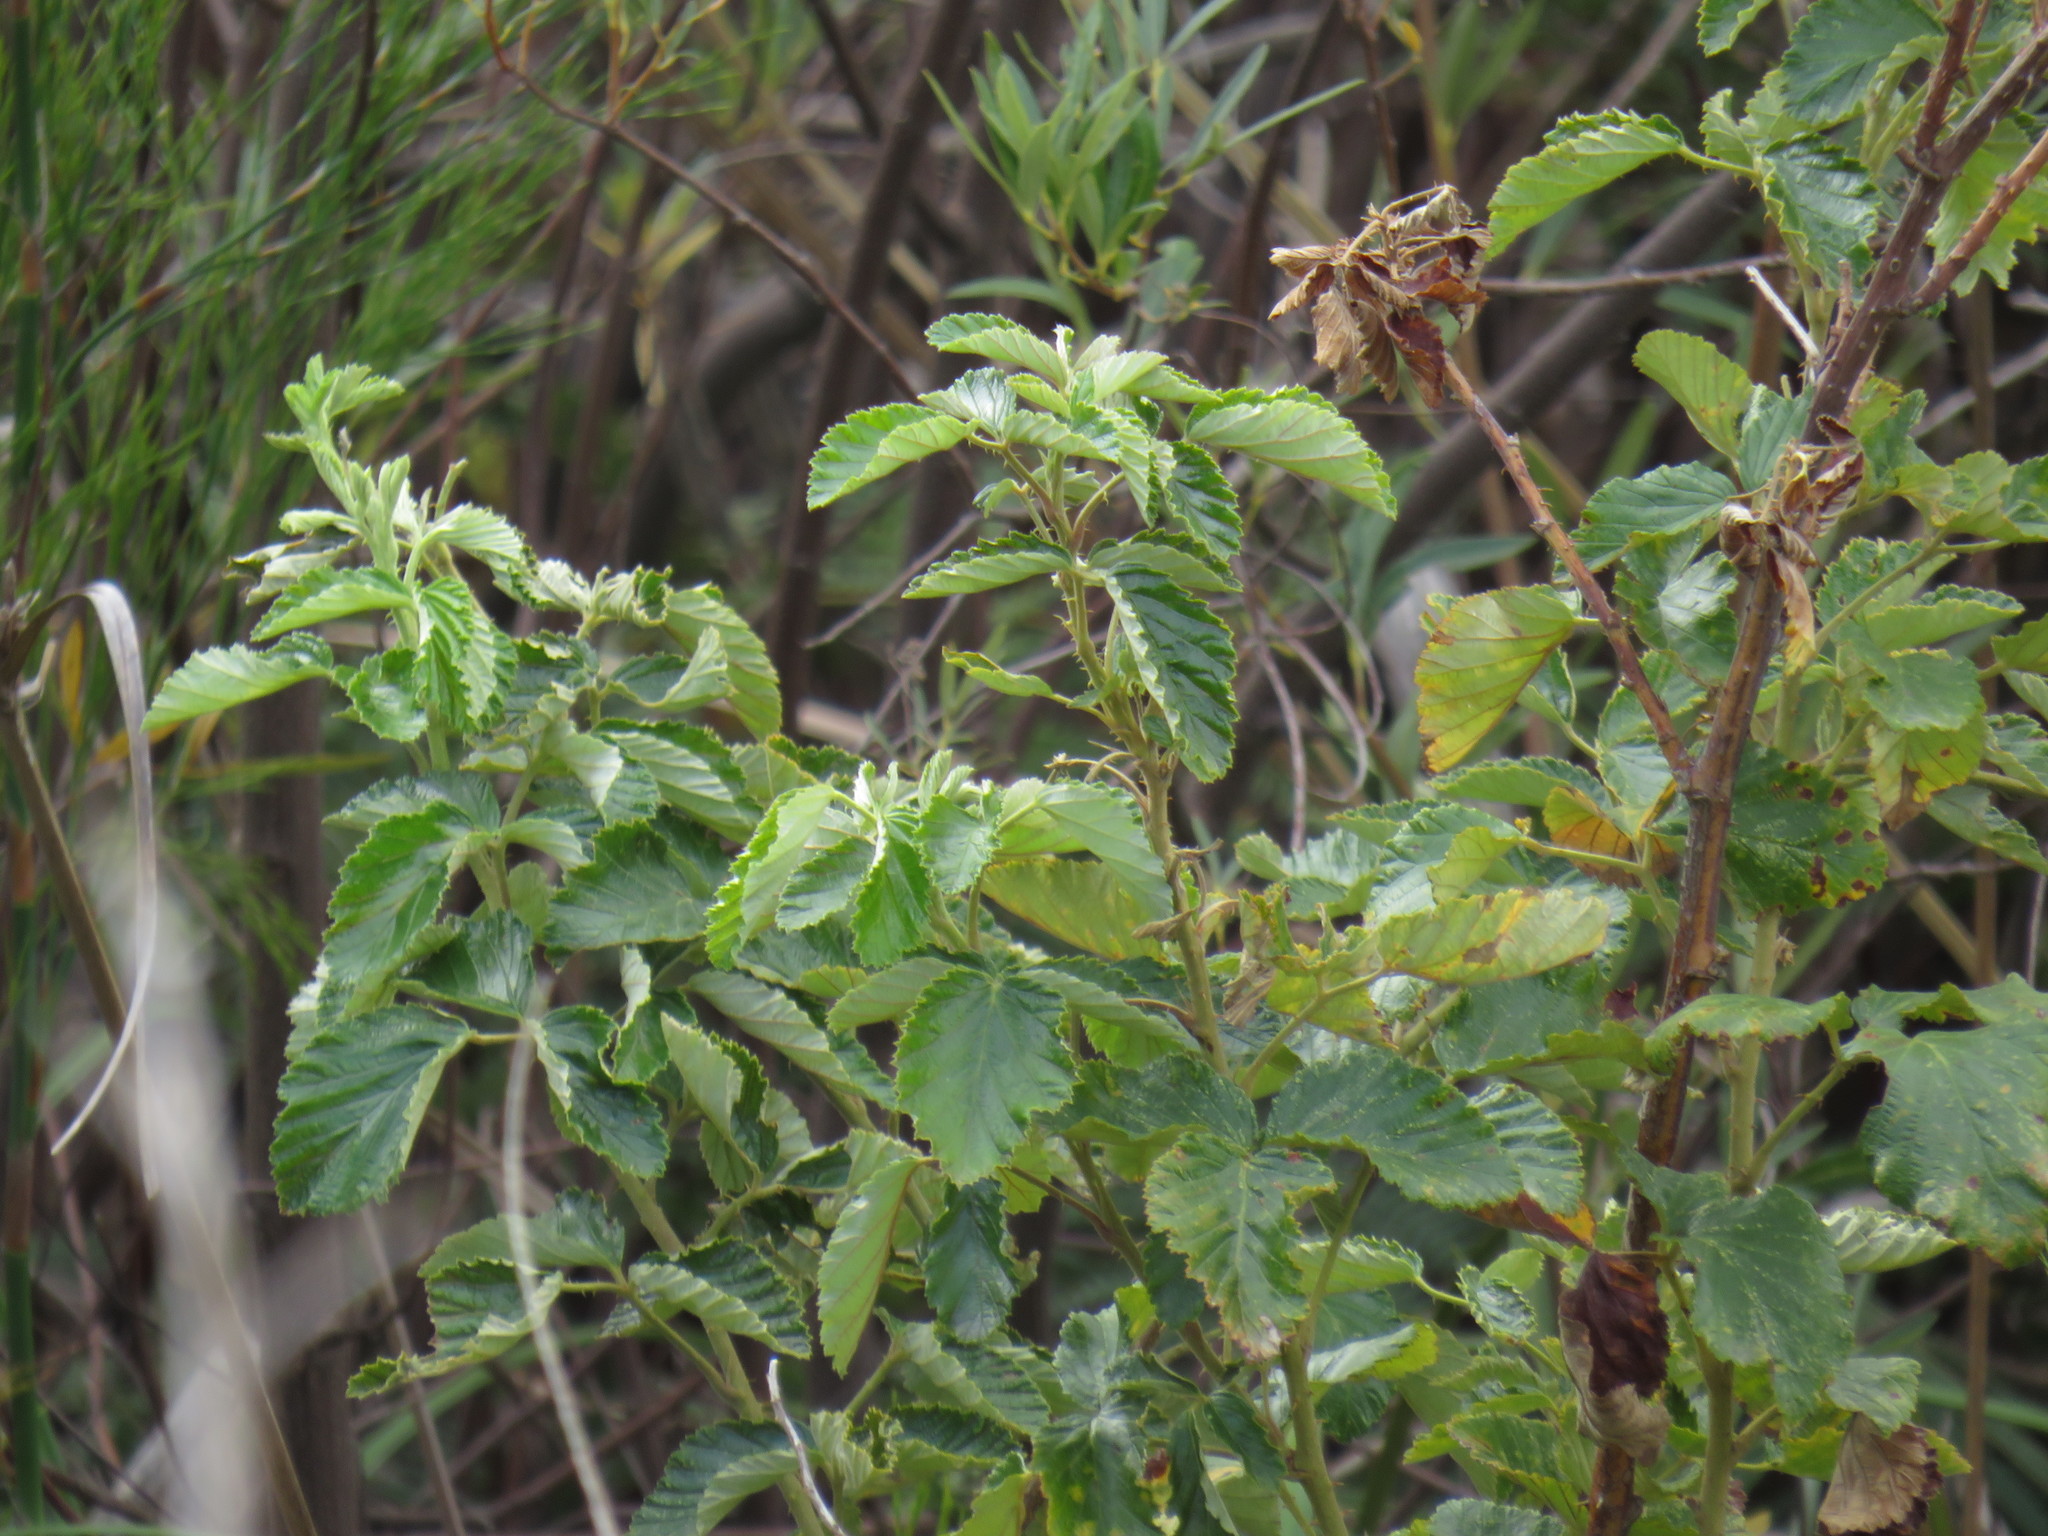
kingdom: Plantae
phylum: Tracheophyta
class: Magnoliopsida
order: Rosales
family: Rosaceae
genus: Rubus
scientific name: Rubus rigidus
